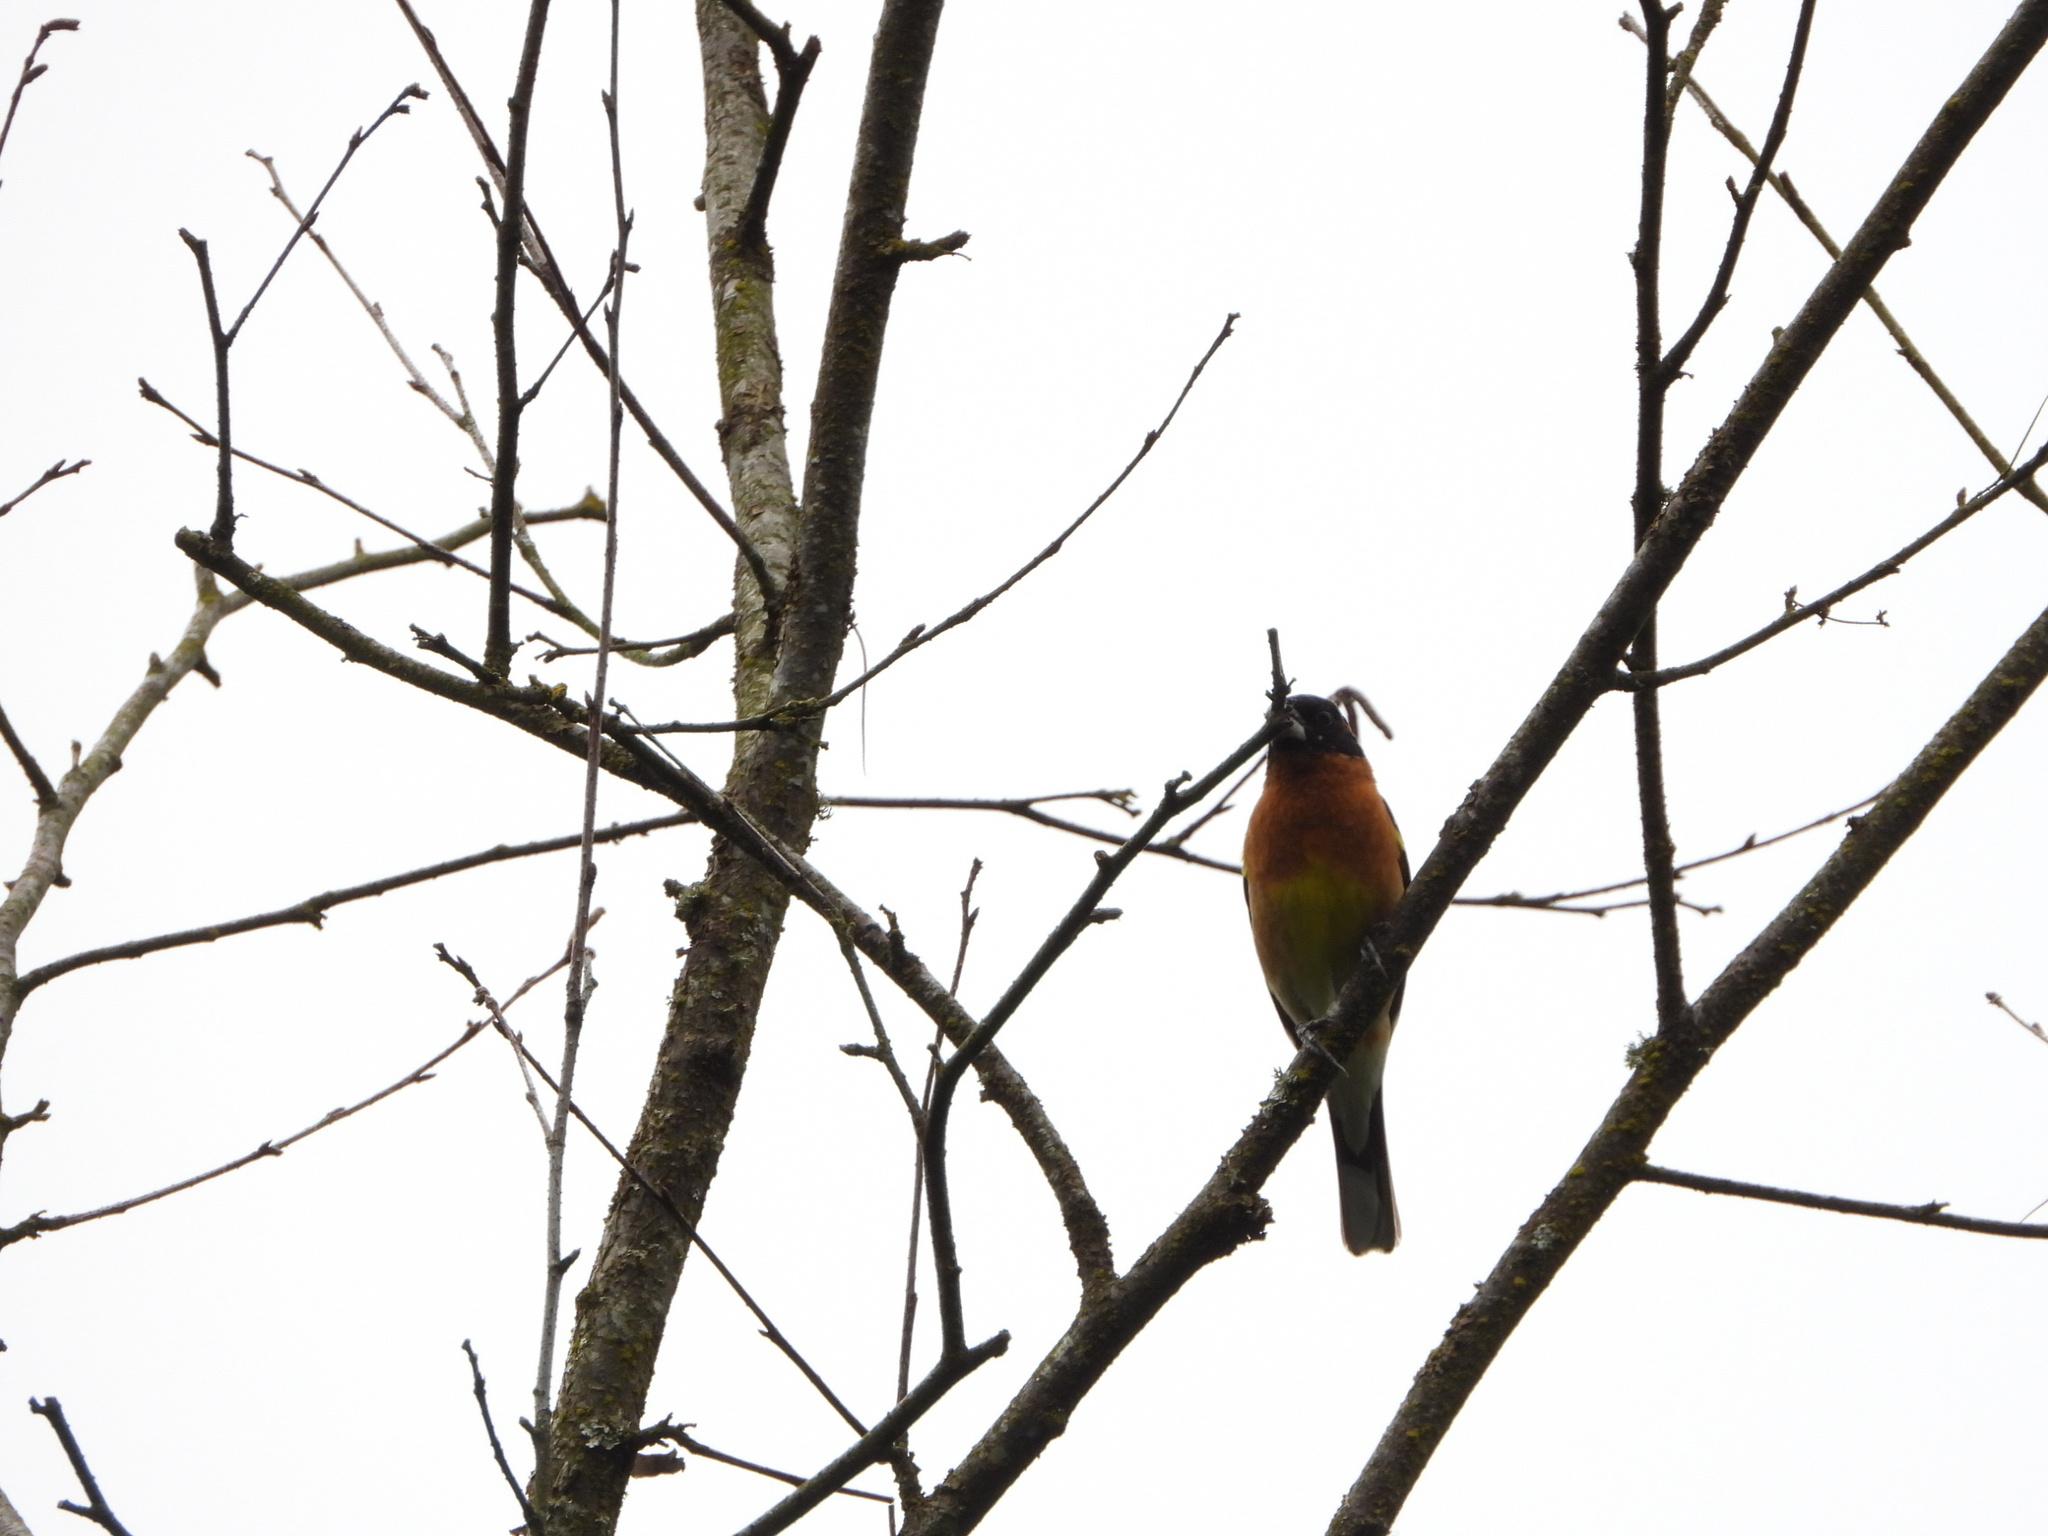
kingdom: Animalia
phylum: Chordata
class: Aves
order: Passeriformes
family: Cardinalidae
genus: Pheucticus
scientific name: Pheucticus melanocephalus
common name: Black-headed grosbeak
